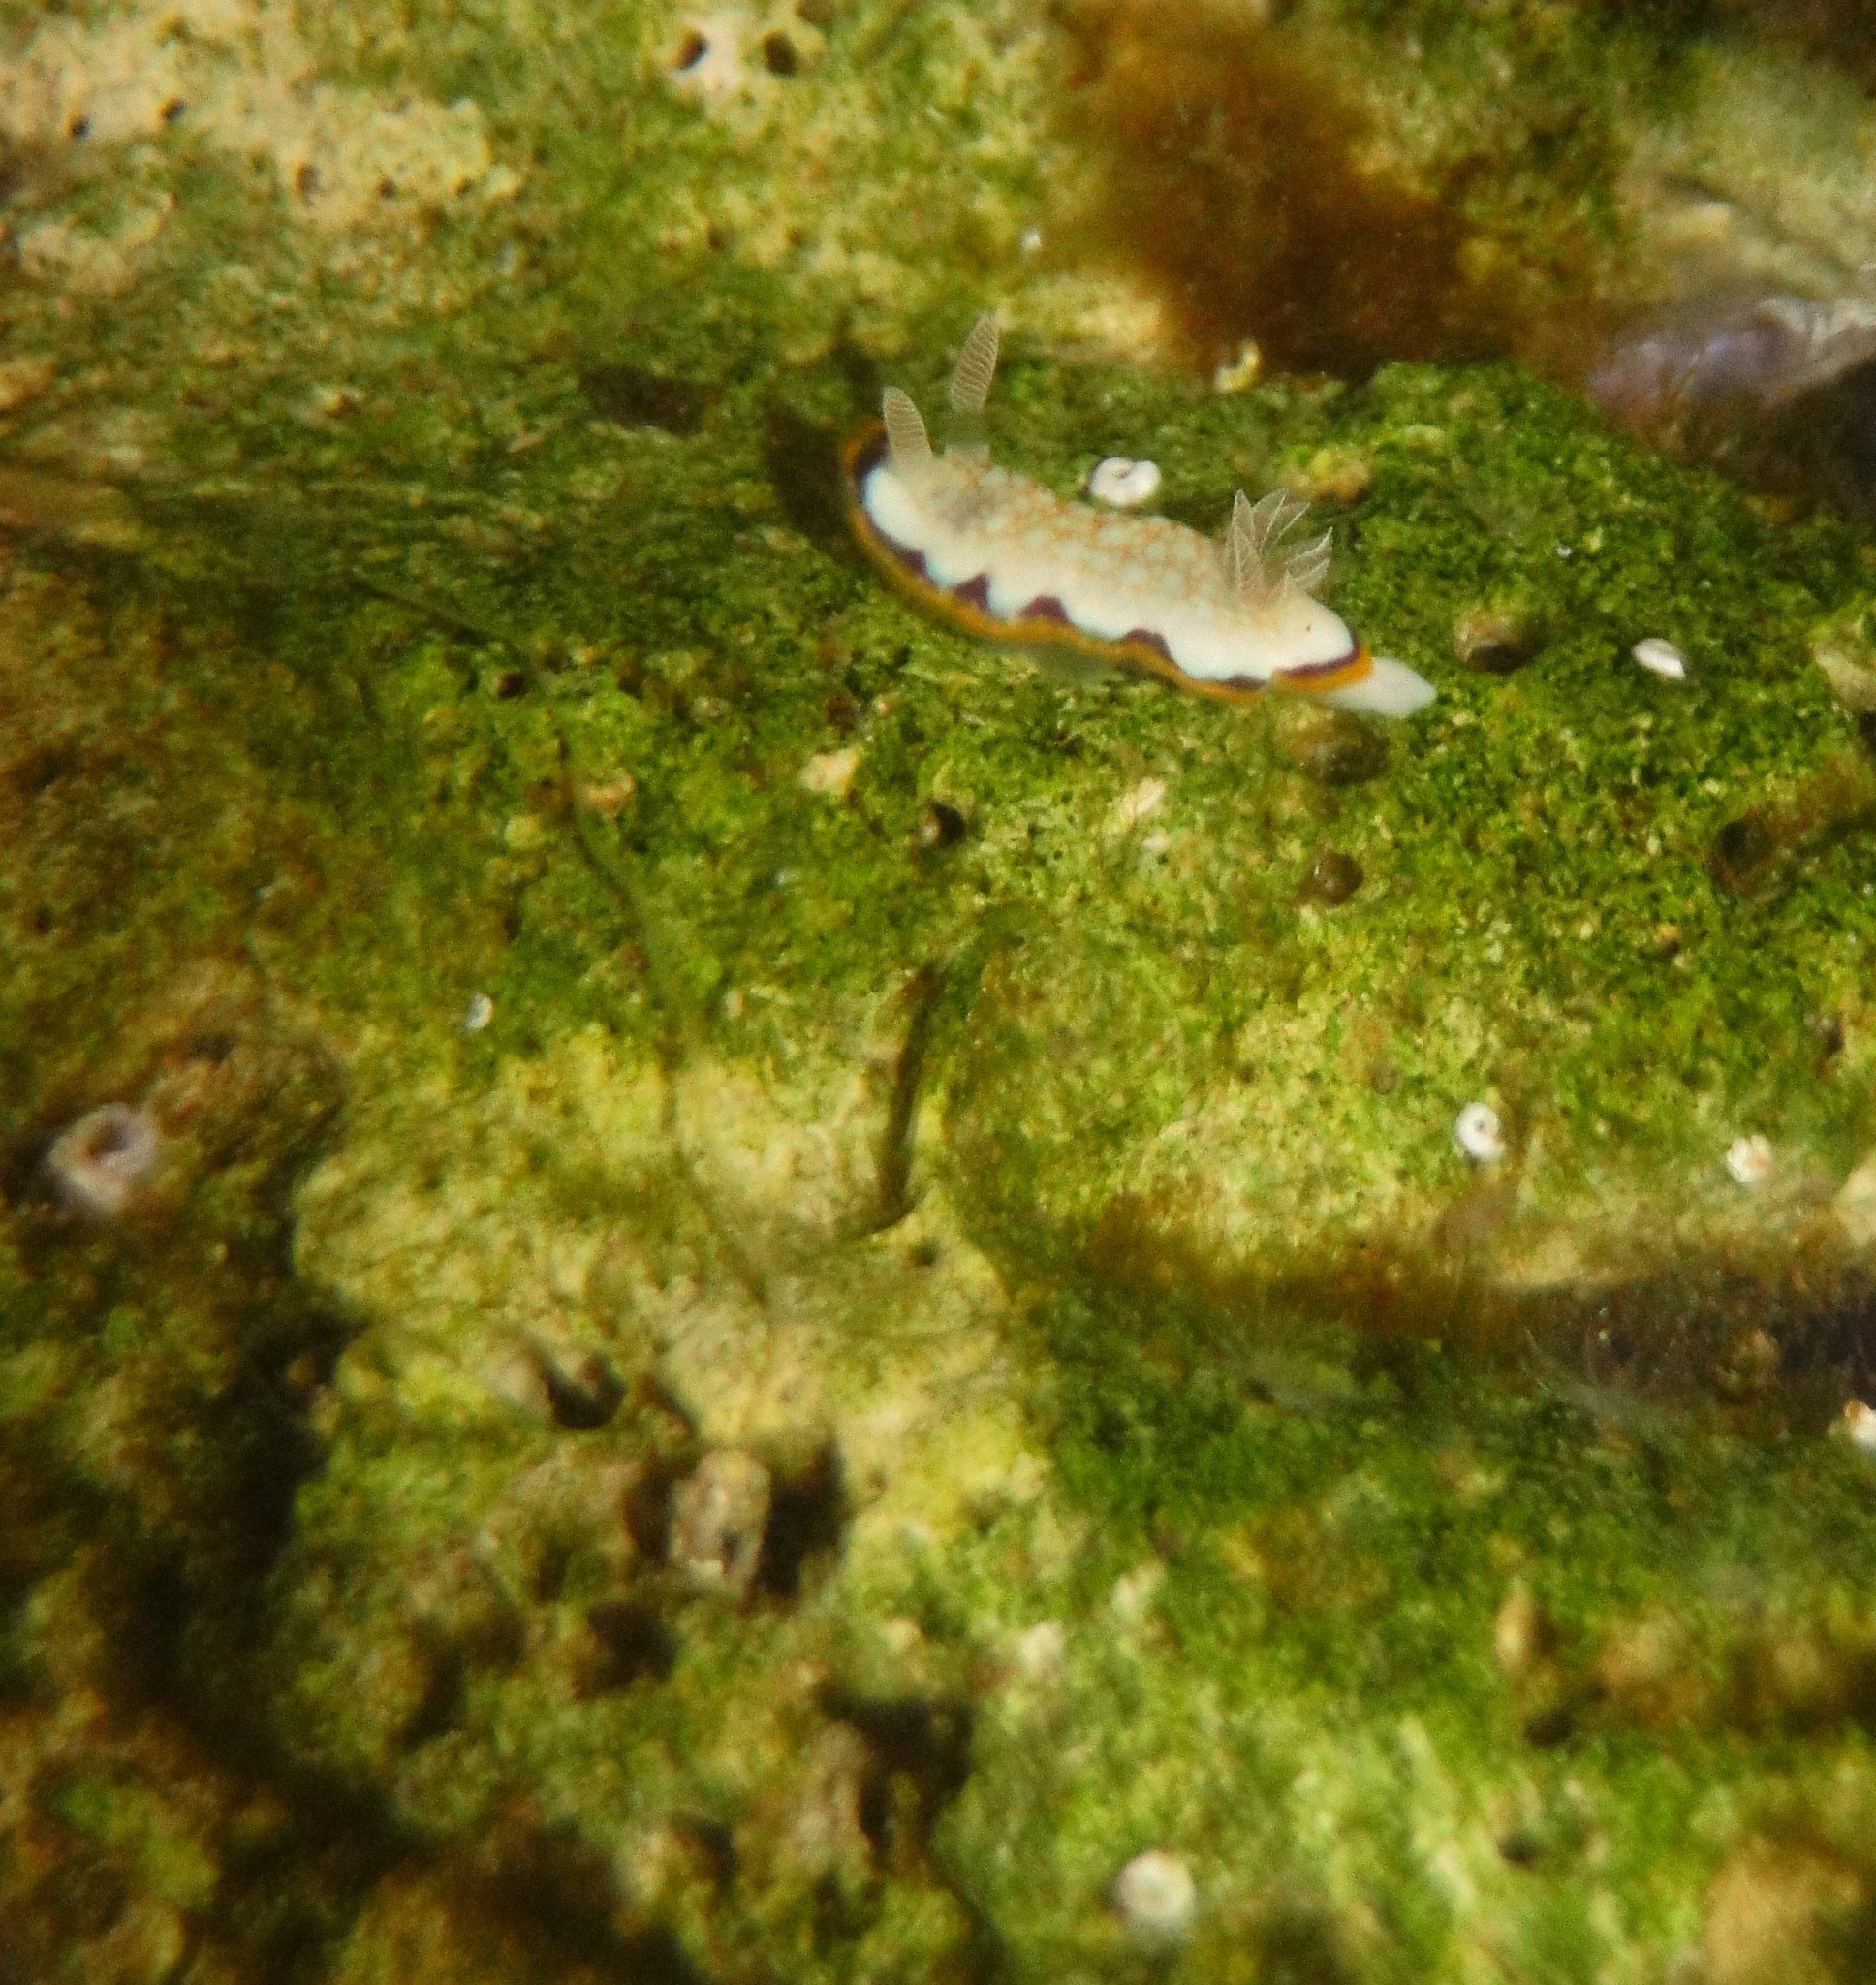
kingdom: Animalia
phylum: Mollusca
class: Gastropoda
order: Nudibranchia
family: Chromodorididae
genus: Goniobranchus
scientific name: Goniobranchus obsoletus
